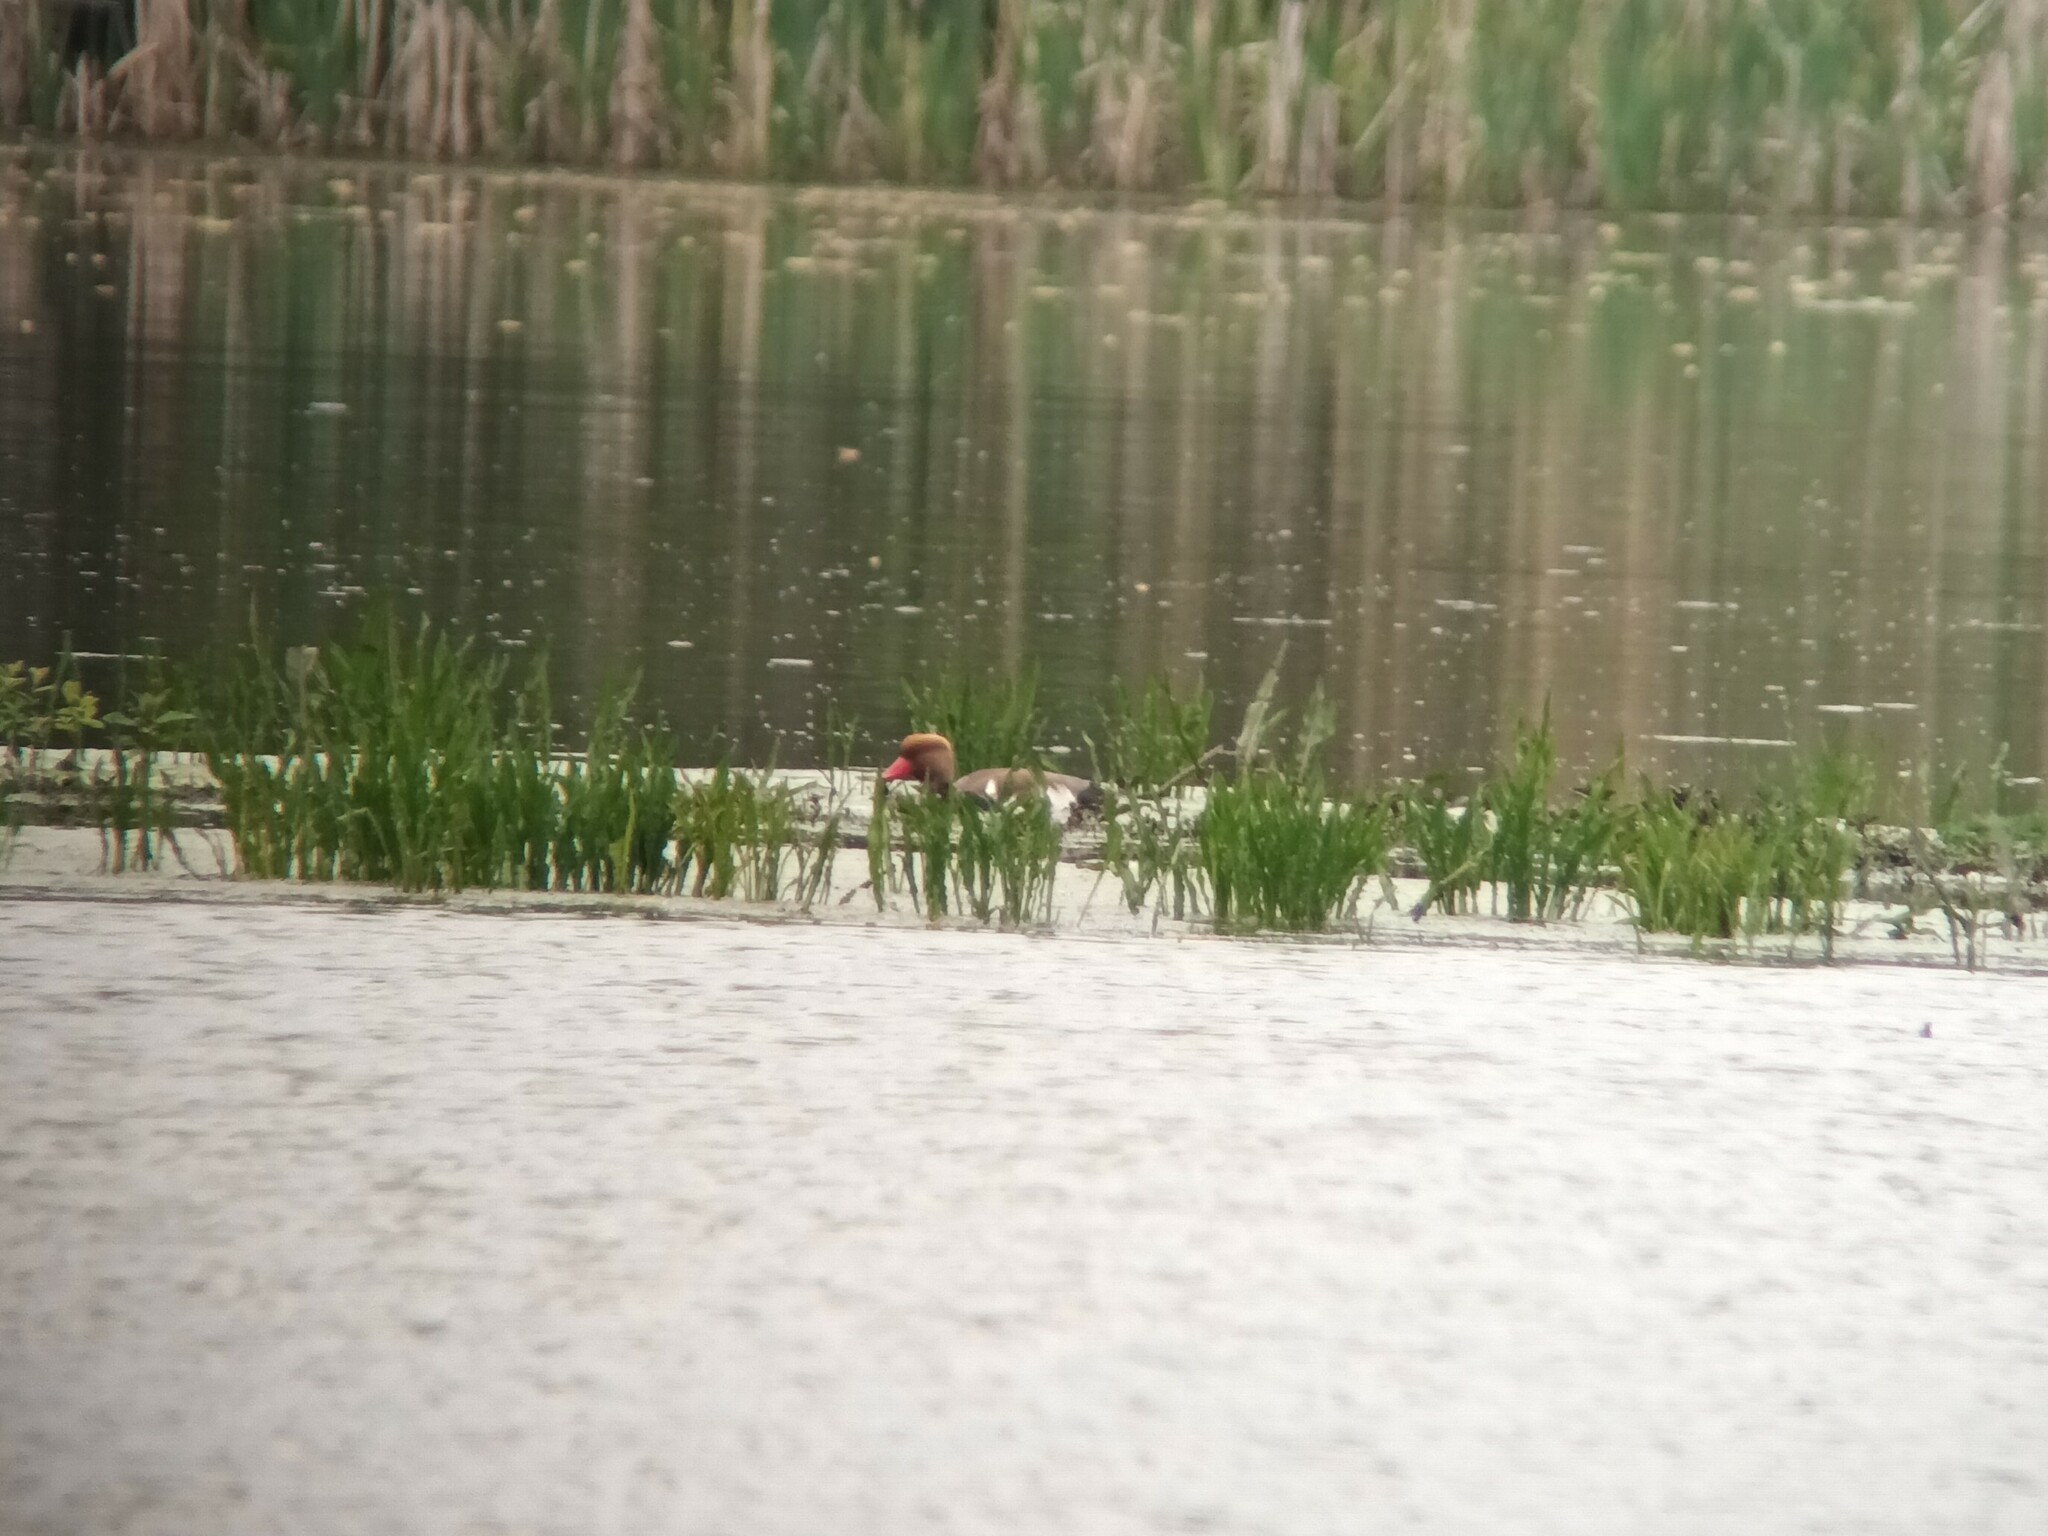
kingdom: Animalia
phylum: Chordata
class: Aves
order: Anseriformes
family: Anatidae
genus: Netta
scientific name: Netta rufina
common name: Red-crested pochard
